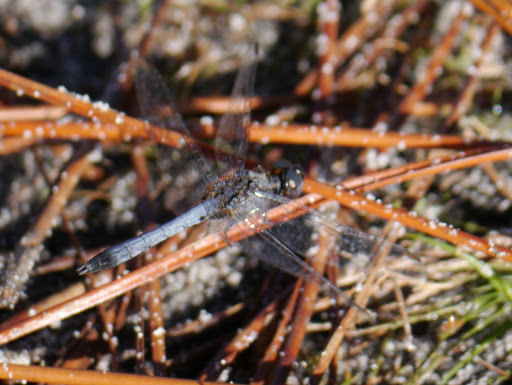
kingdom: Animalia
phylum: Arthropoda
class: Insecta
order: Odonata
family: Libellulidae
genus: Erythrodiplax
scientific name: Erythrodiplax minuscula
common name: Little blue dragonlet
